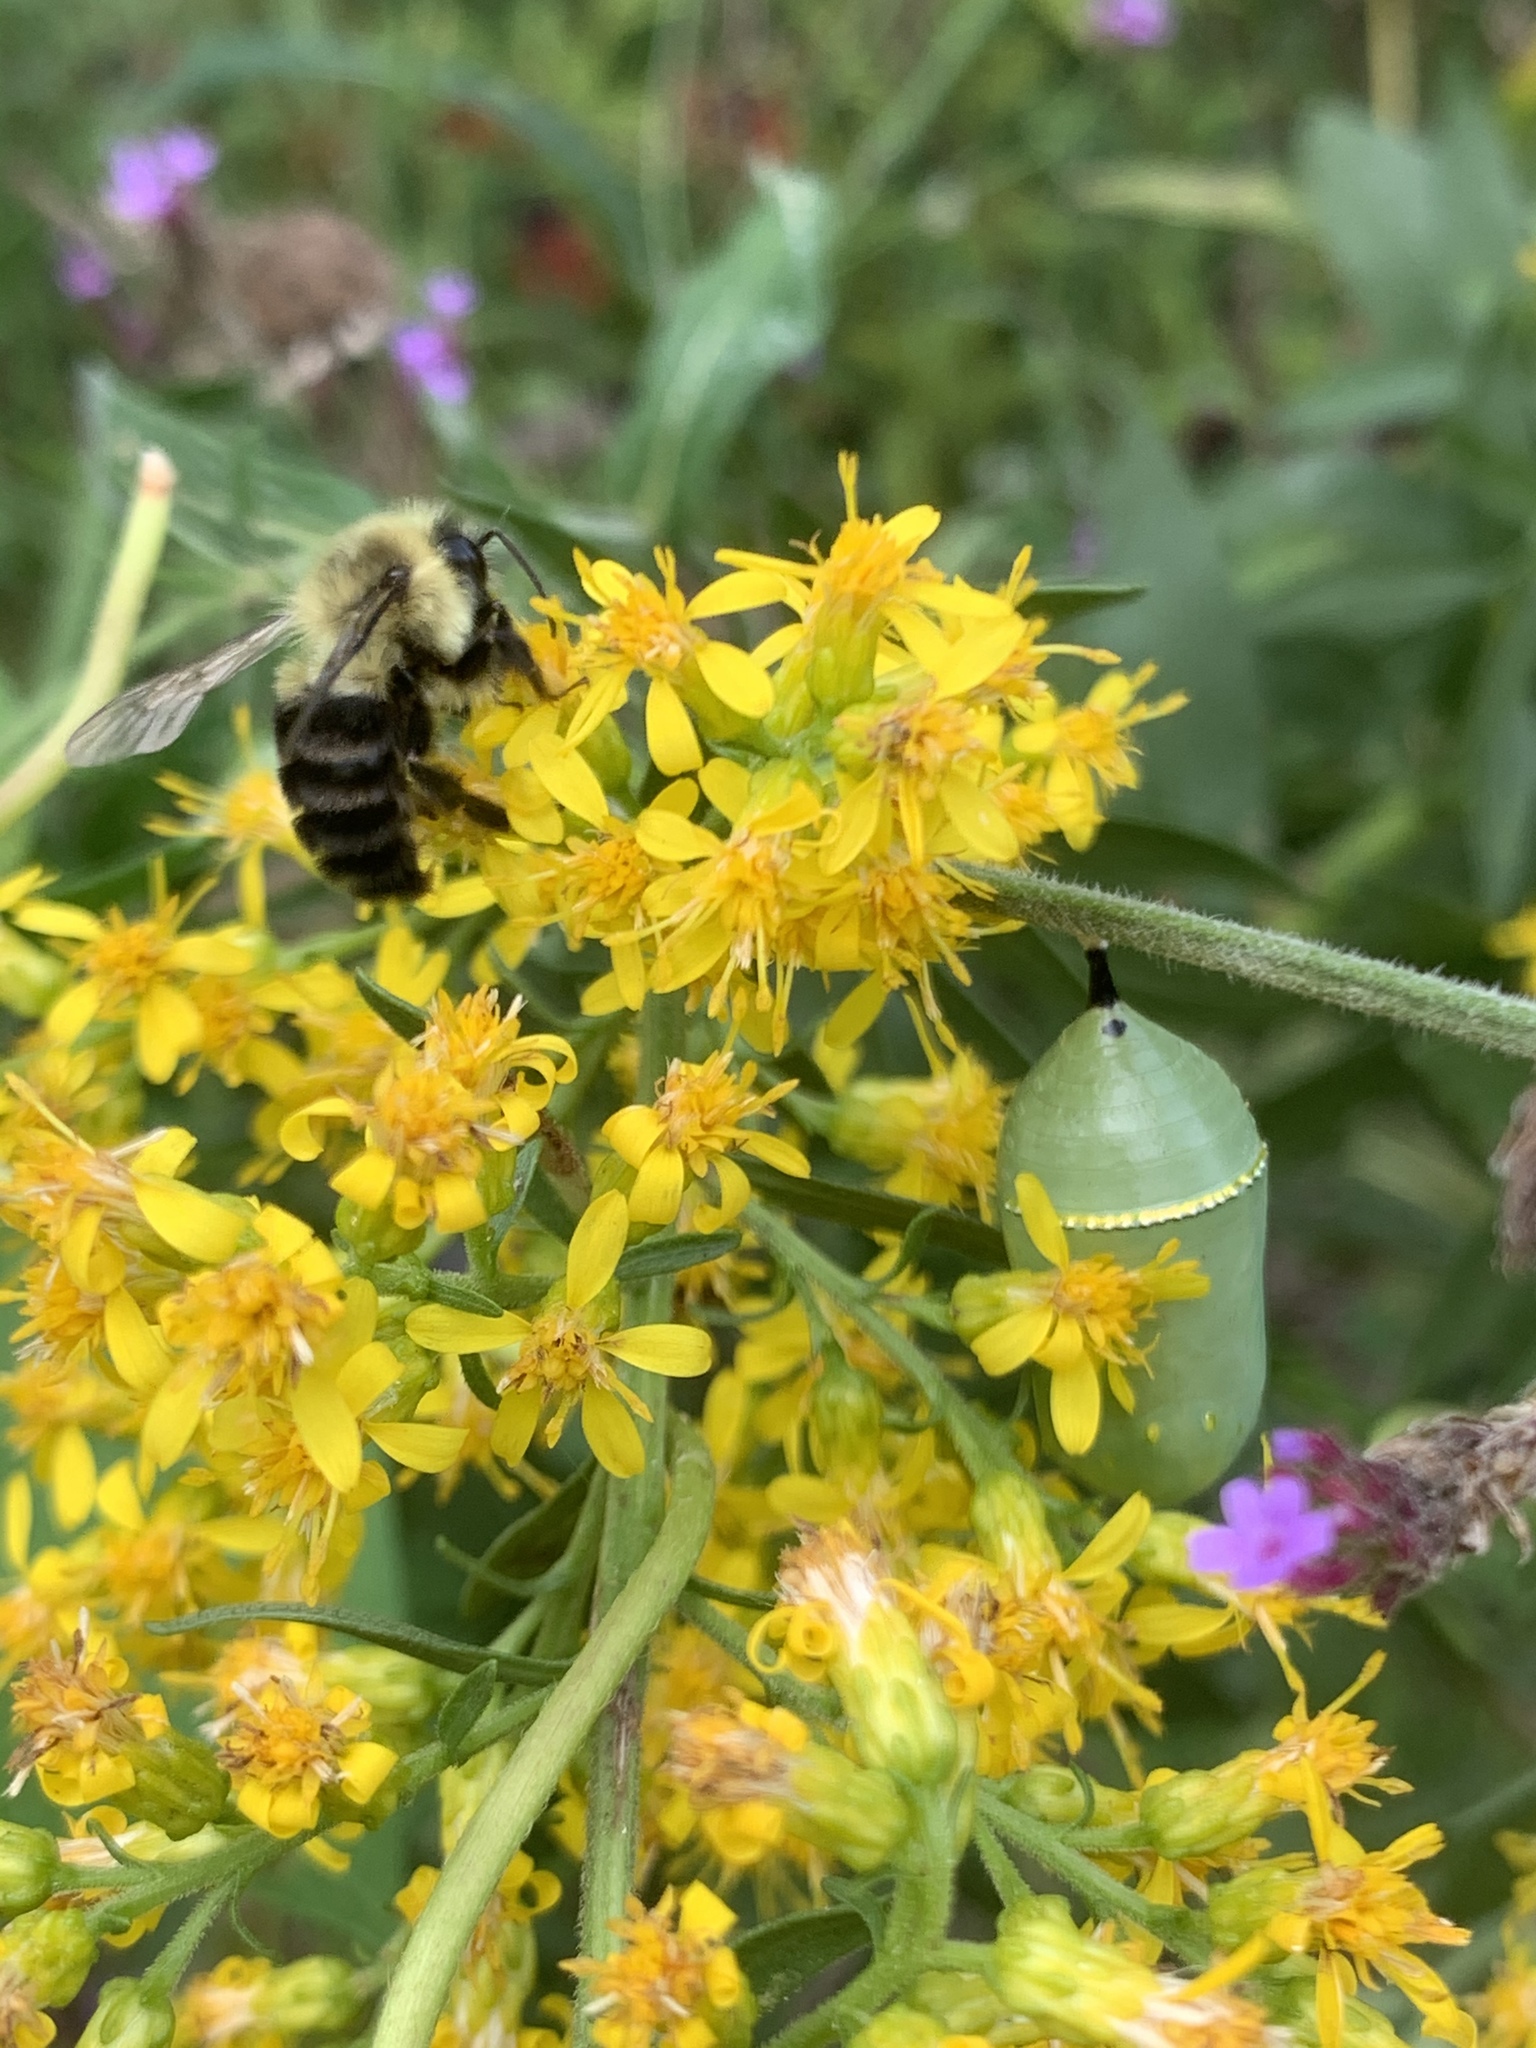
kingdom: Animalia
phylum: Arthropoda
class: Insecta
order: Lepidoptera
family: Nymphalidae
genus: Danaus
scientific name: Danaus plexippus
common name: Monarch
